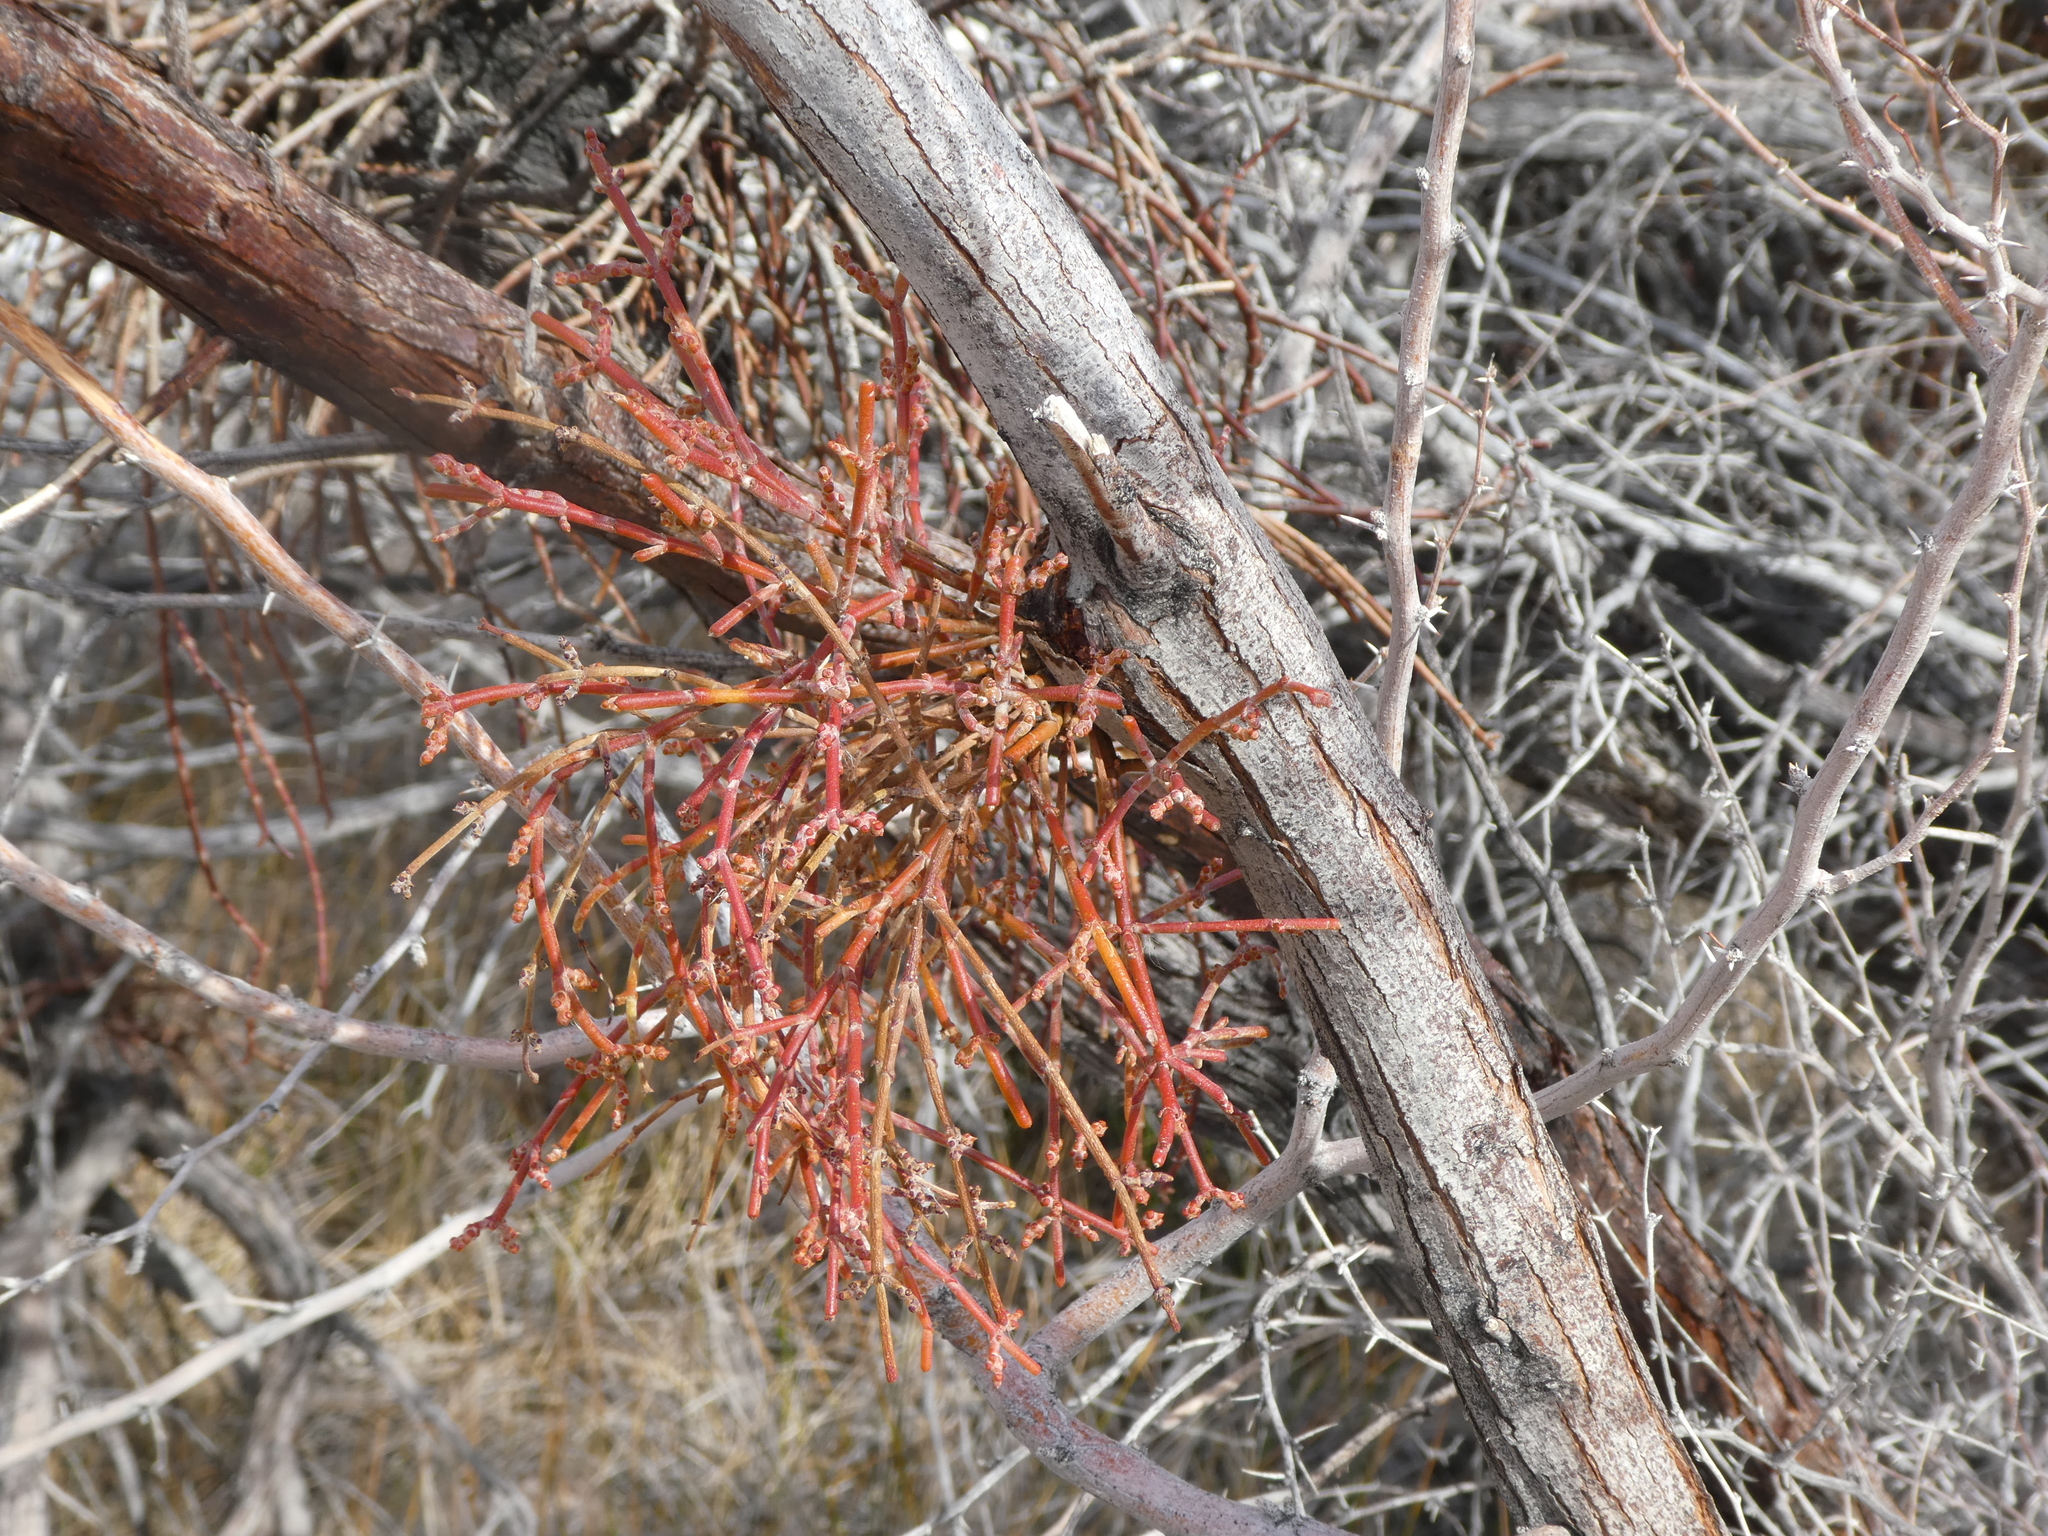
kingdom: Plantae
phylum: Tracheophyta
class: Magnoliopsida
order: Santalales
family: Viscaceae
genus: Phoradendron
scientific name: Phoradendron californicum
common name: Acacia mistletoe
